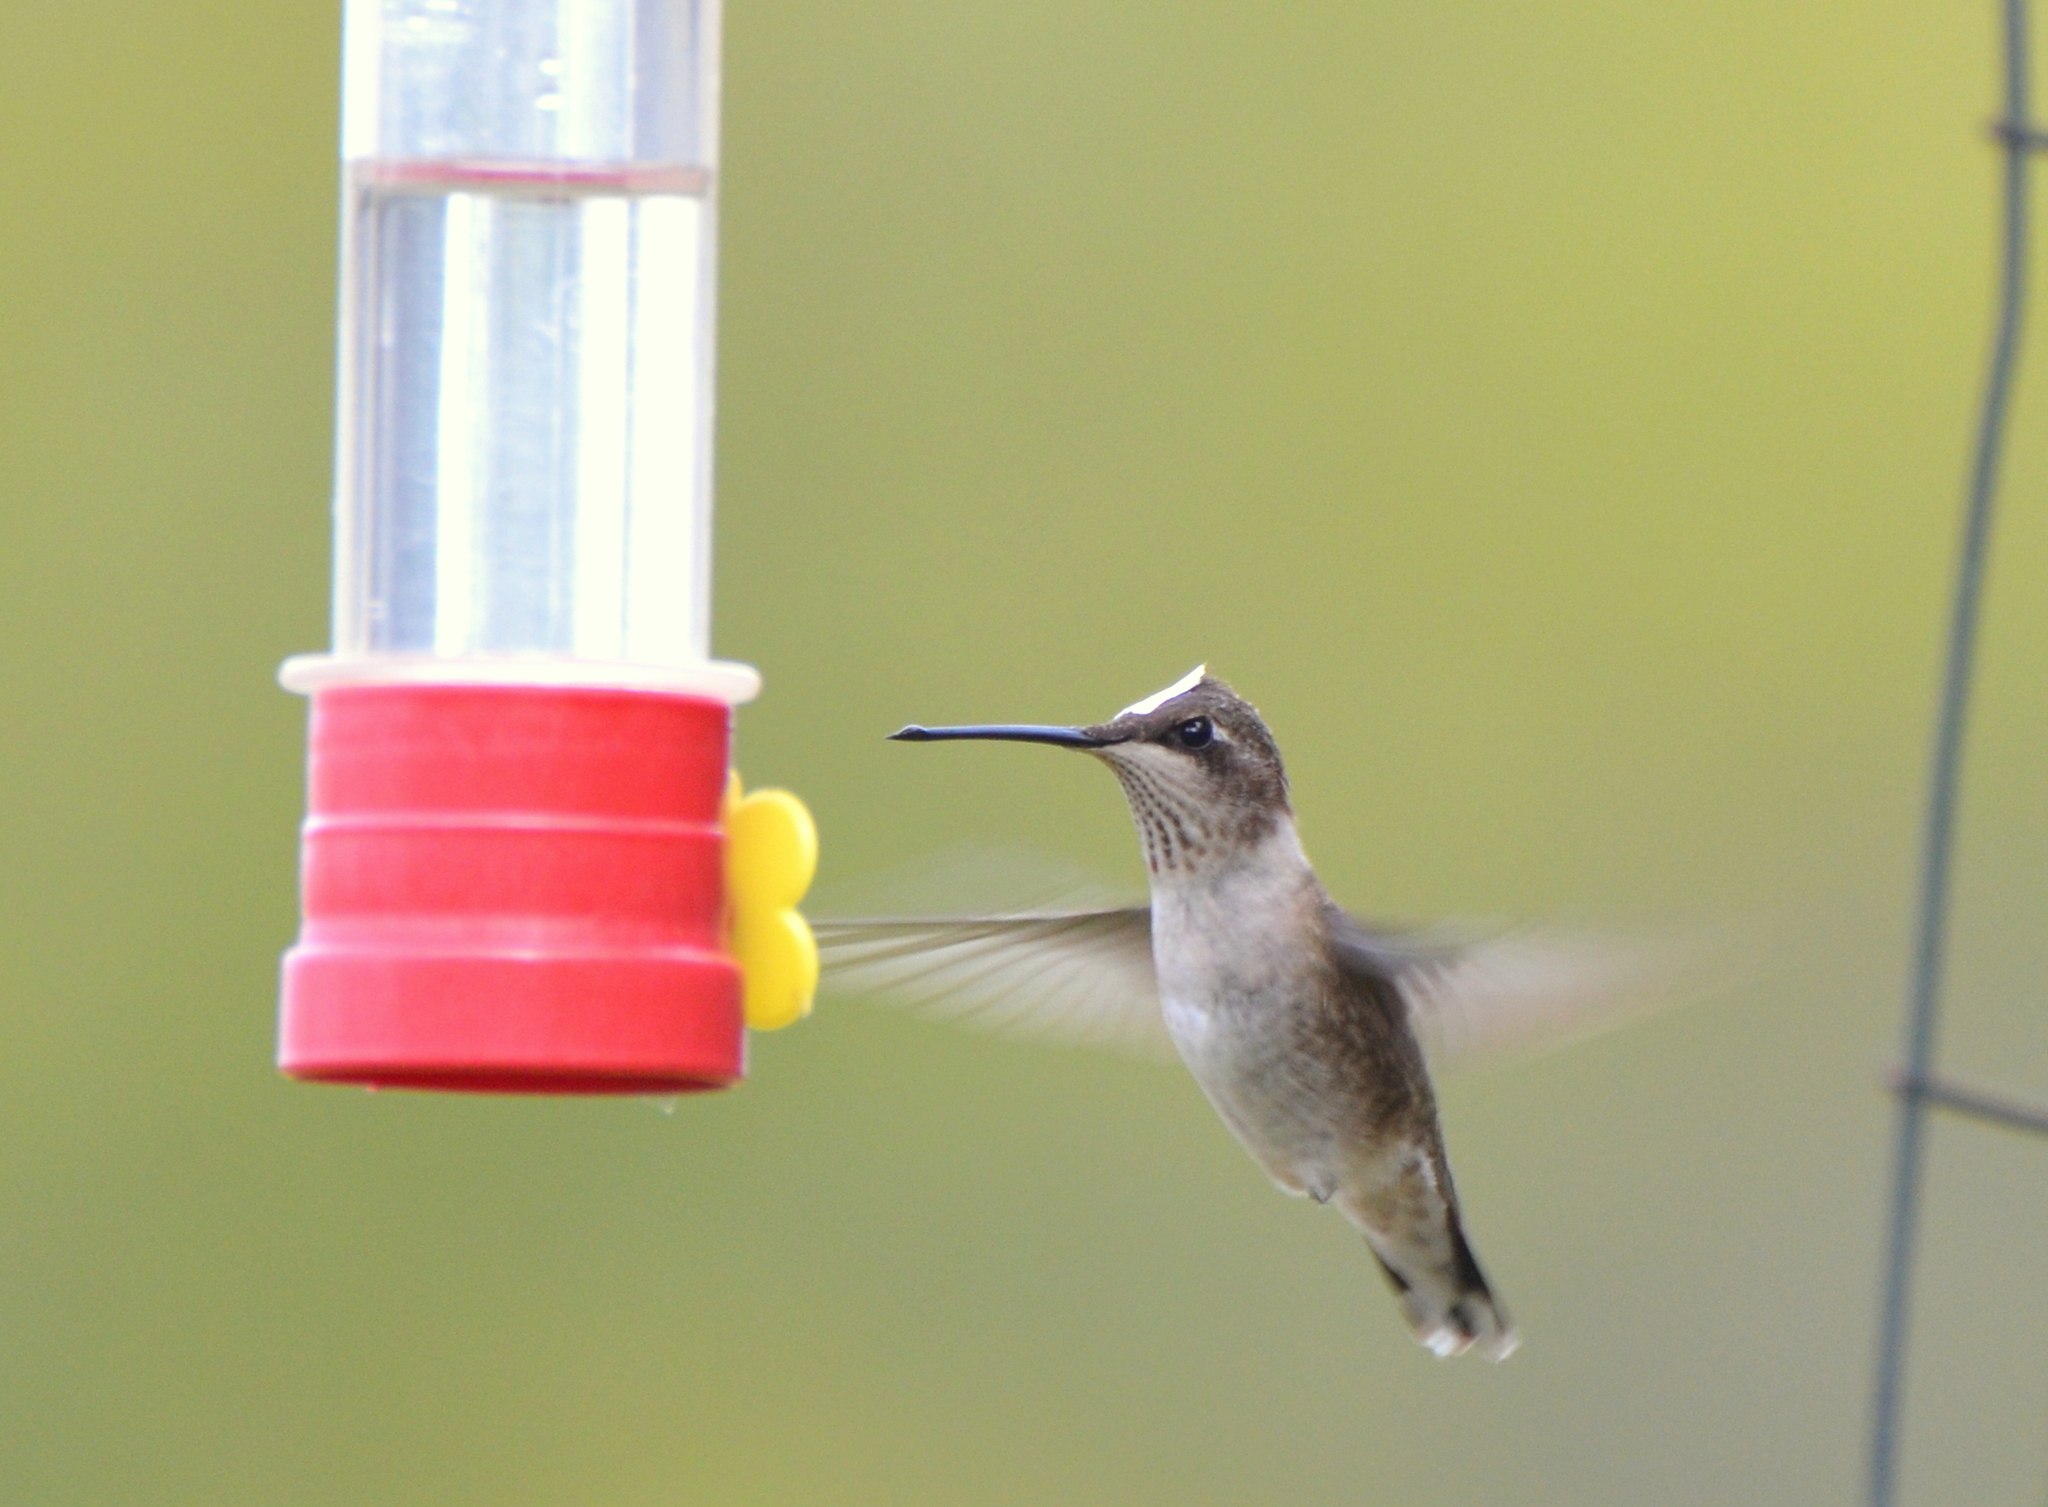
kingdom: Animalia
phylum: Chordata
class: Aves
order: Apodiformes
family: Trochilidae
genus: Archilochus
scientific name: Archilochus alexandri
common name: Black-chinned hummingbird
